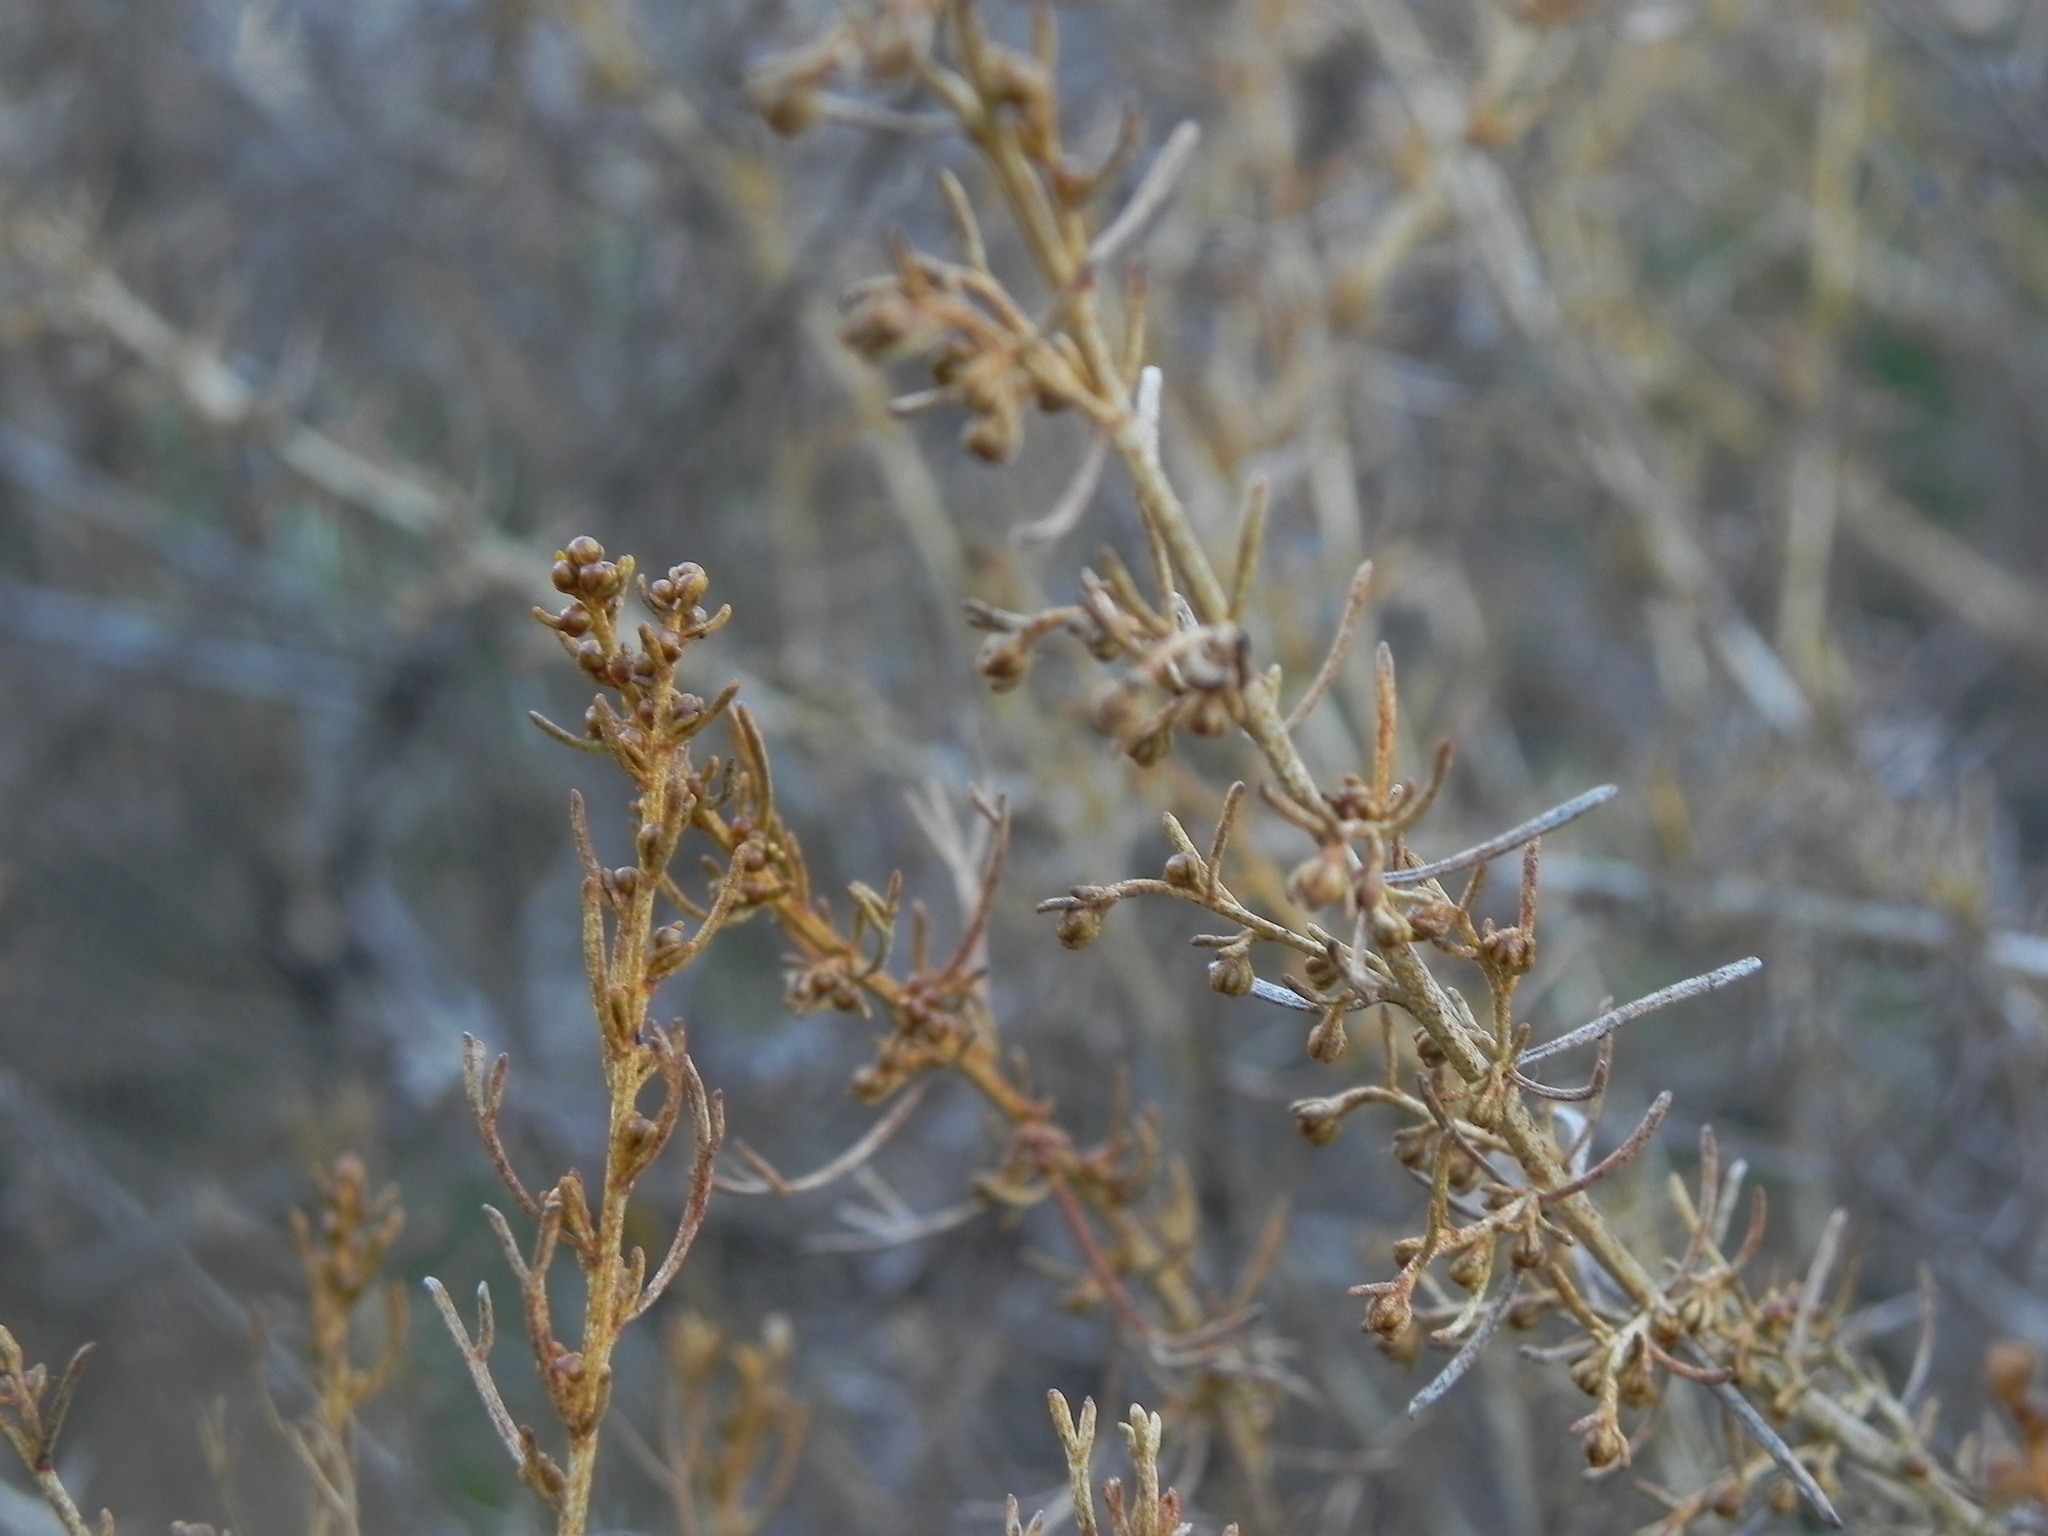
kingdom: Plantae
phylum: Tracheophyta
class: Magnoliopsida
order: Asterales
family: Asteraceae
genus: Artemisia
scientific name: Artemisia californica
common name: California sagebrush
